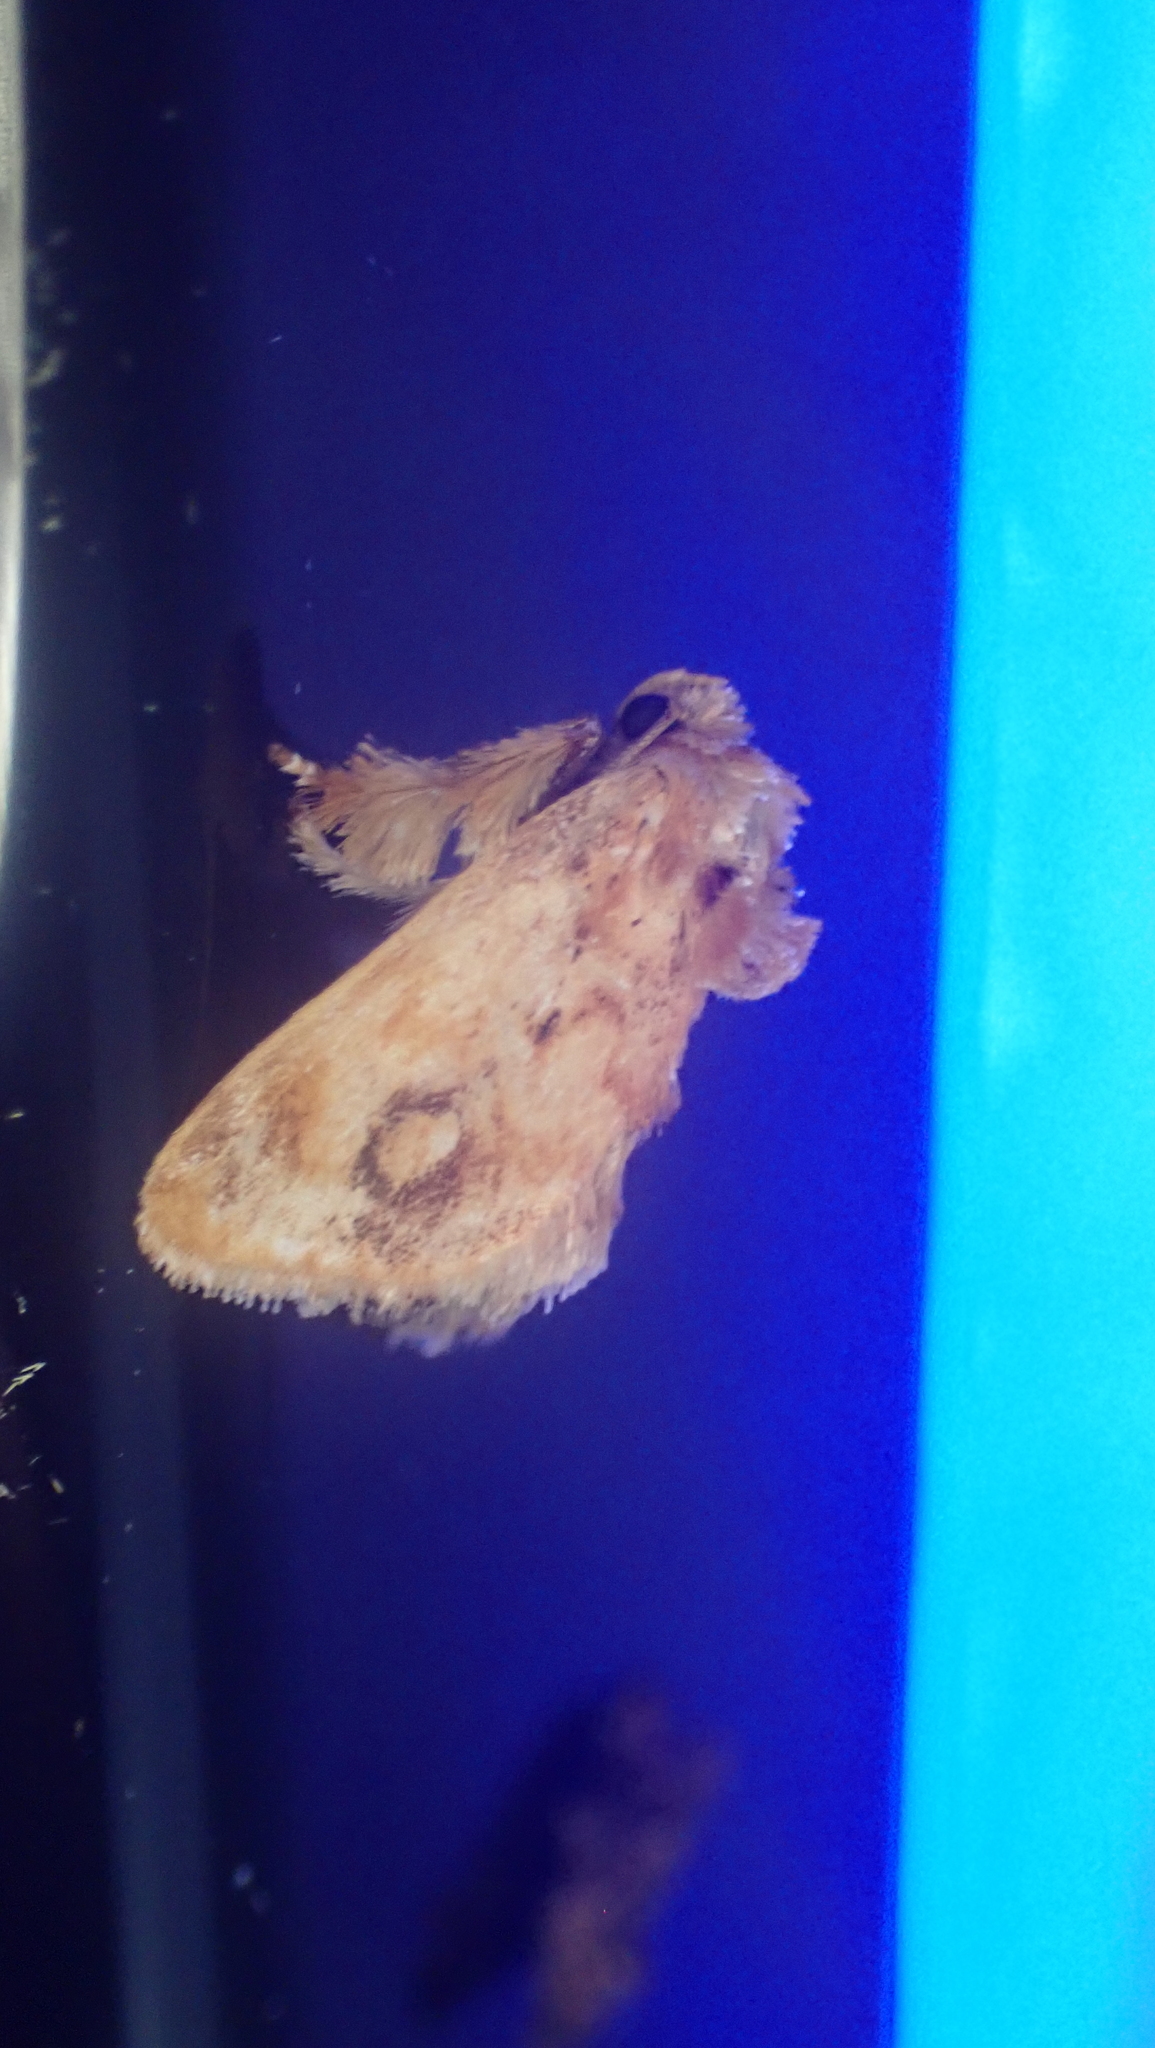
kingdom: Animalia
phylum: Arthropoda
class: Insecta
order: Lepidoptera
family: Limacodidae
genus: Isochaetes
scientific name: Isochaetes beutenmuelleri
